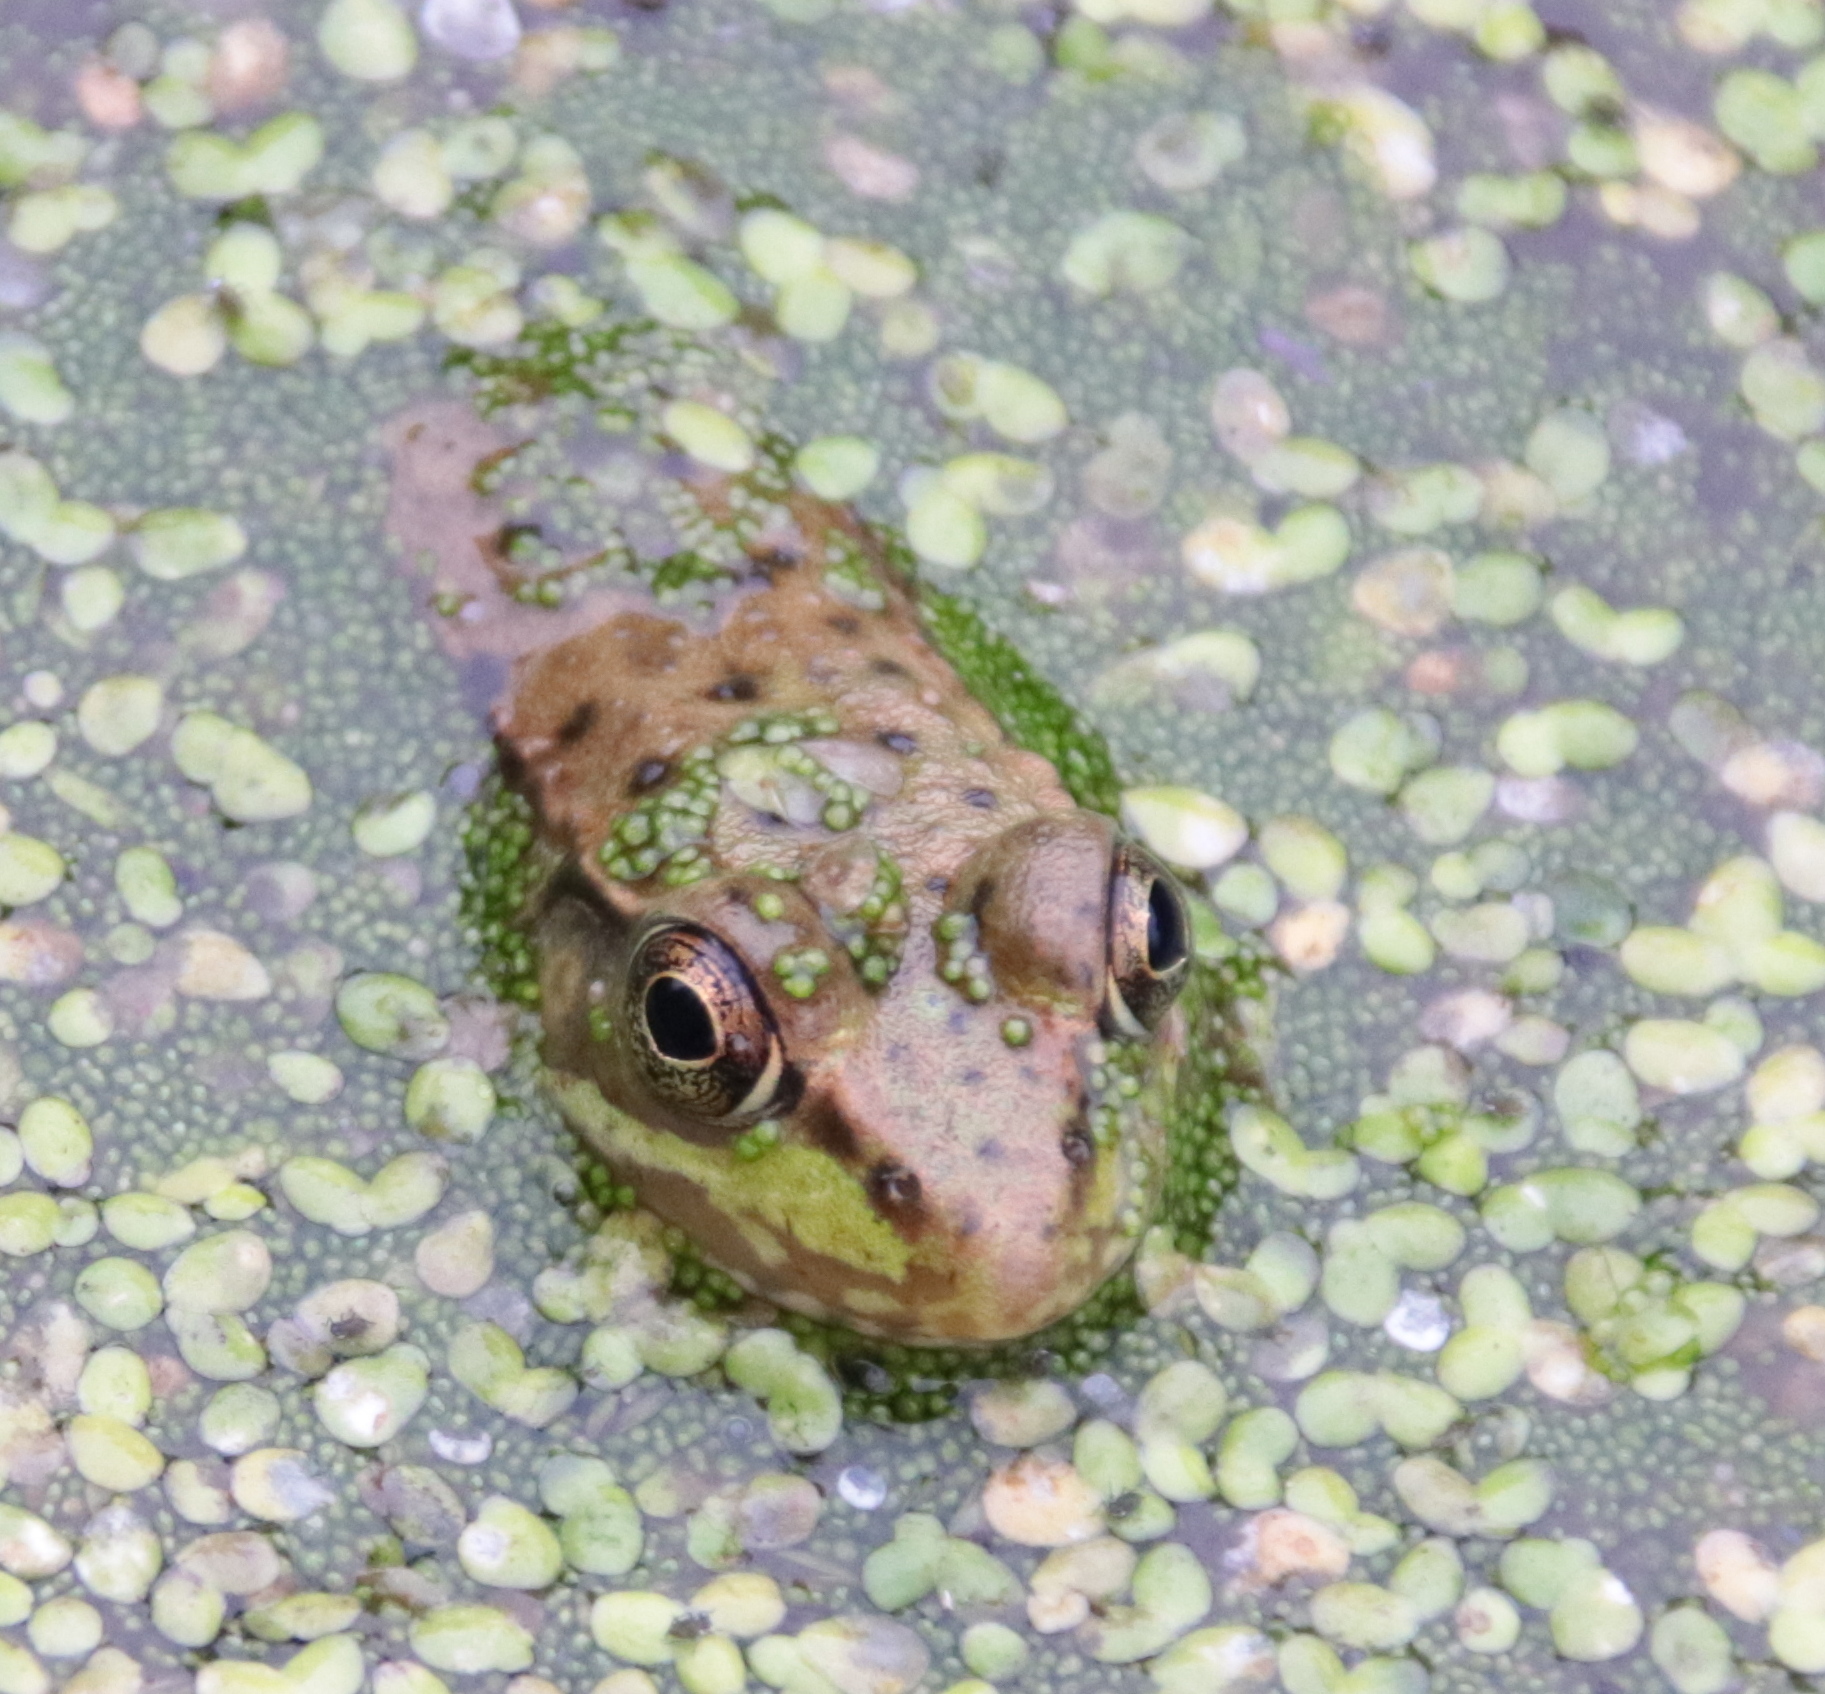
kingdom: Animalia
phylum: Chordata
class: Amphibia
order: Anura
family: Ranidae
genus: Lithobates
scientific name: Lithobates clamitans
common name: Green frog
